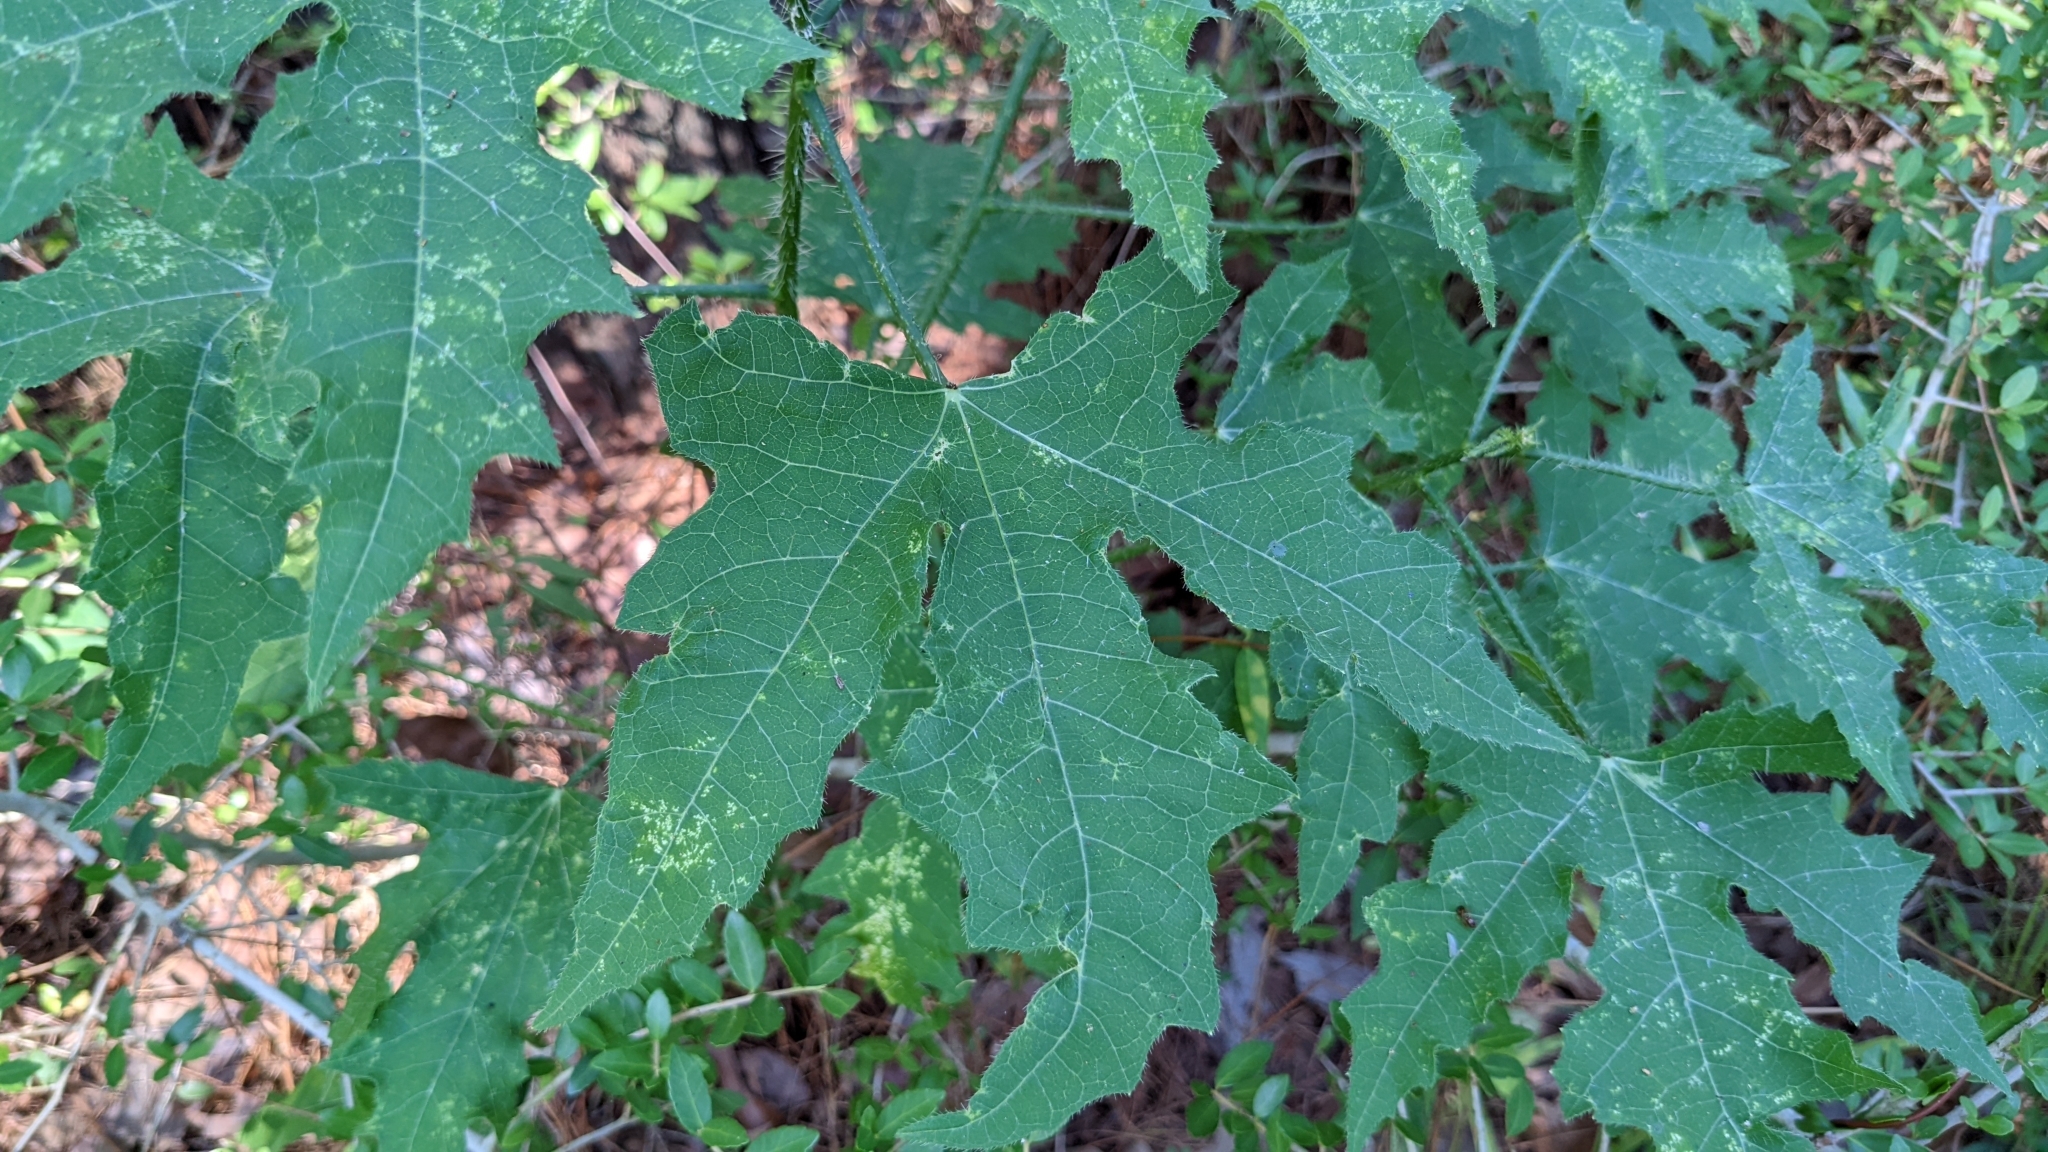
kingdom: Plantae
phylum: Tracheophyta
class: Magnoliopsida
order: Malpighiales
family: Euphorbiaceae
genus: Cnidoscolus
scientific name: Cnidoscolus texanus
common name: Texas bull-nettle
